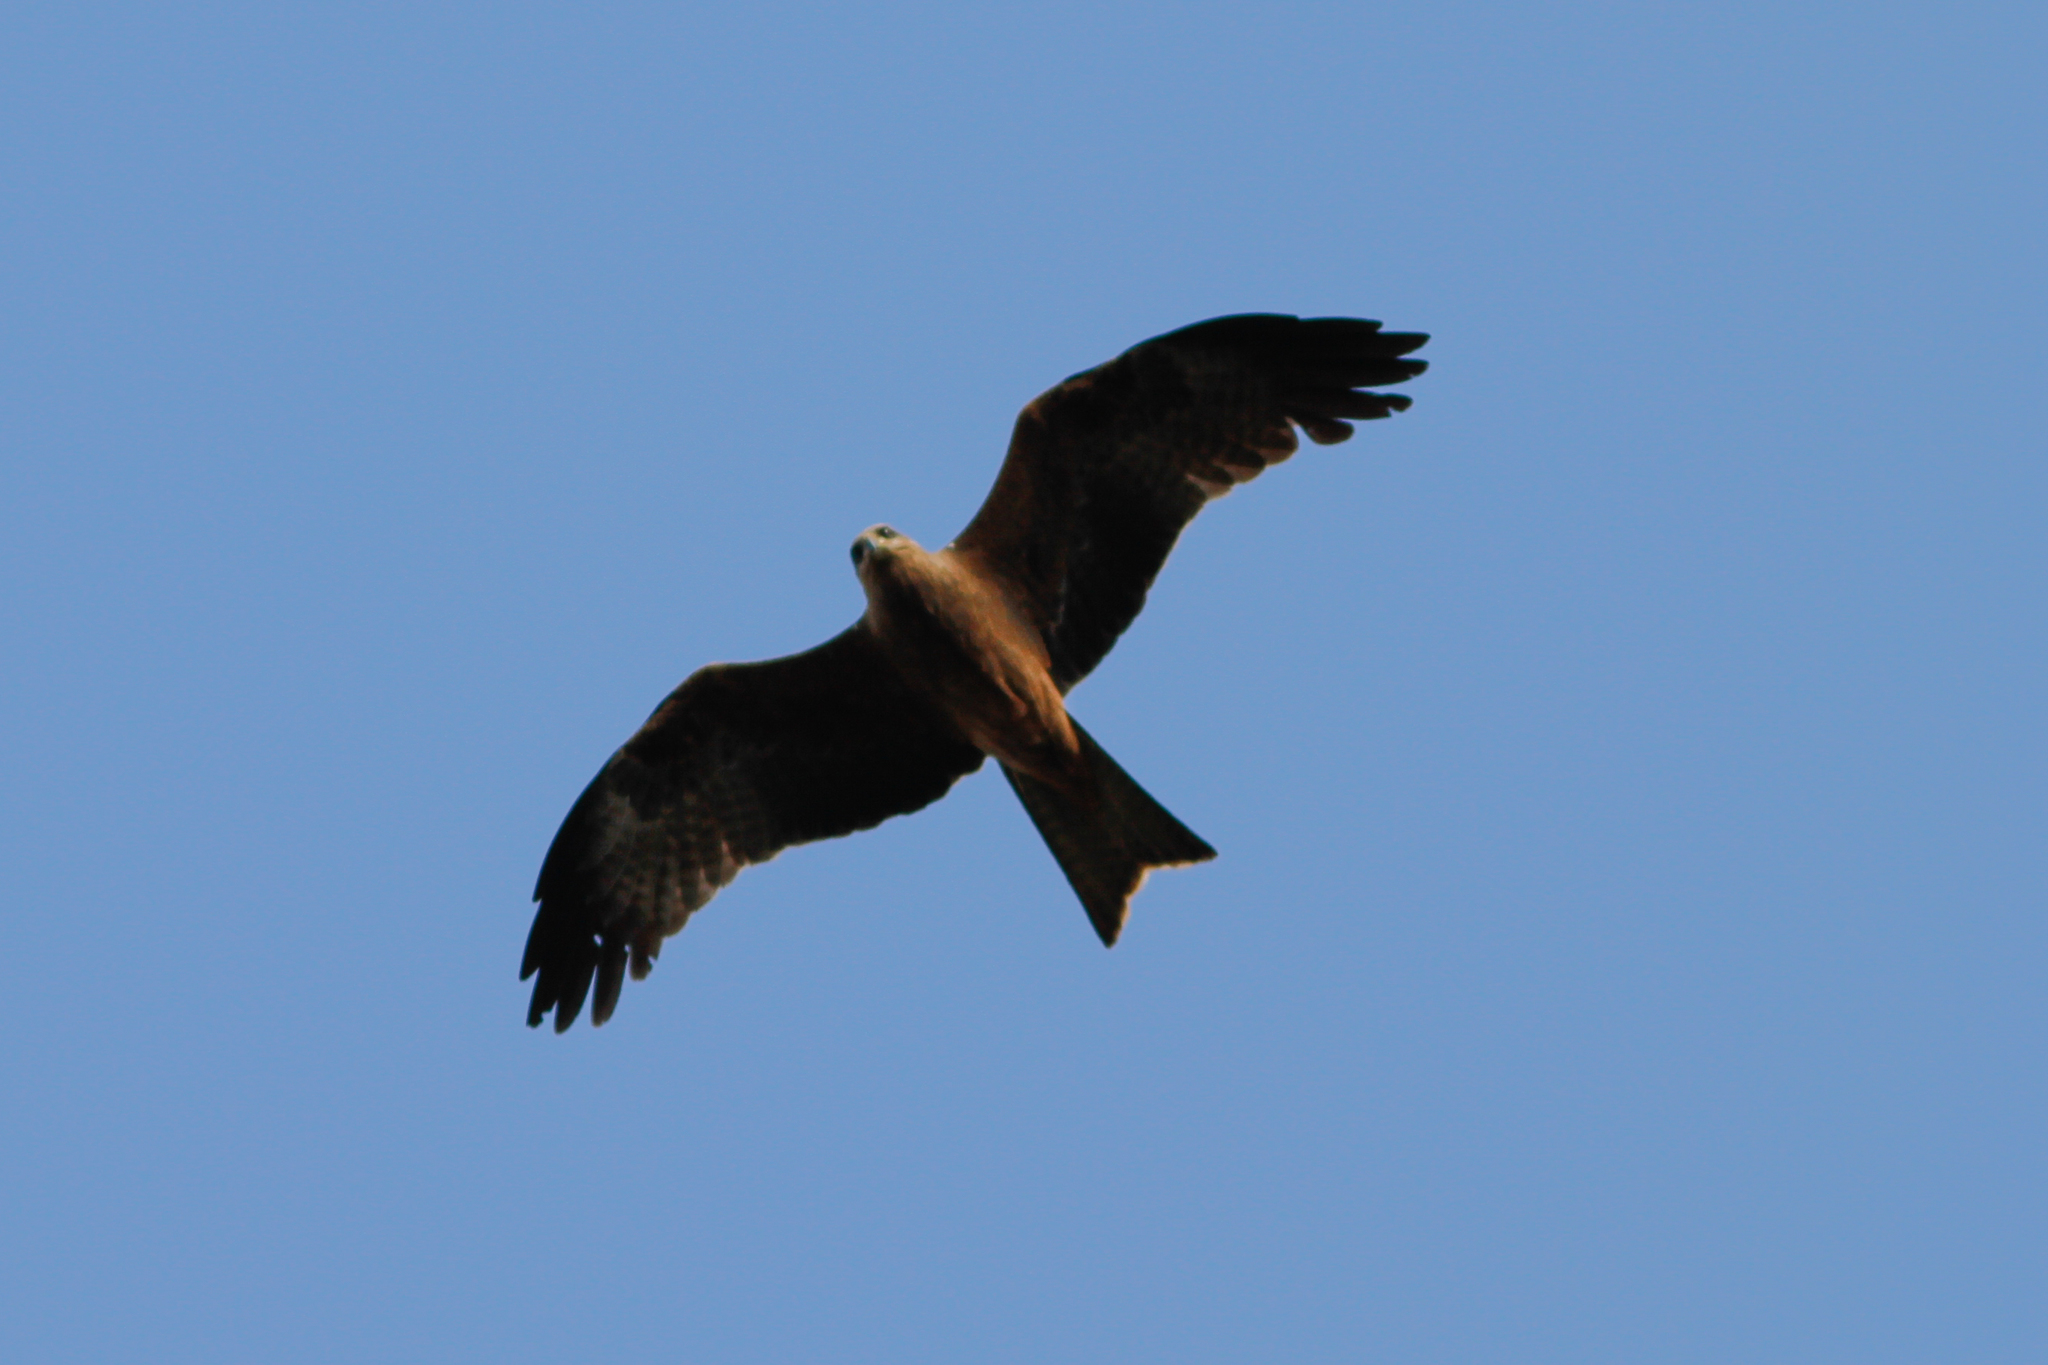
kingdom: Animalia
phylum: Chordata
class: Aves
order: Accipitriformes
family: Accipitridae
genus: Milvus
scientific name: Milvus migrans
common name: Black kite
